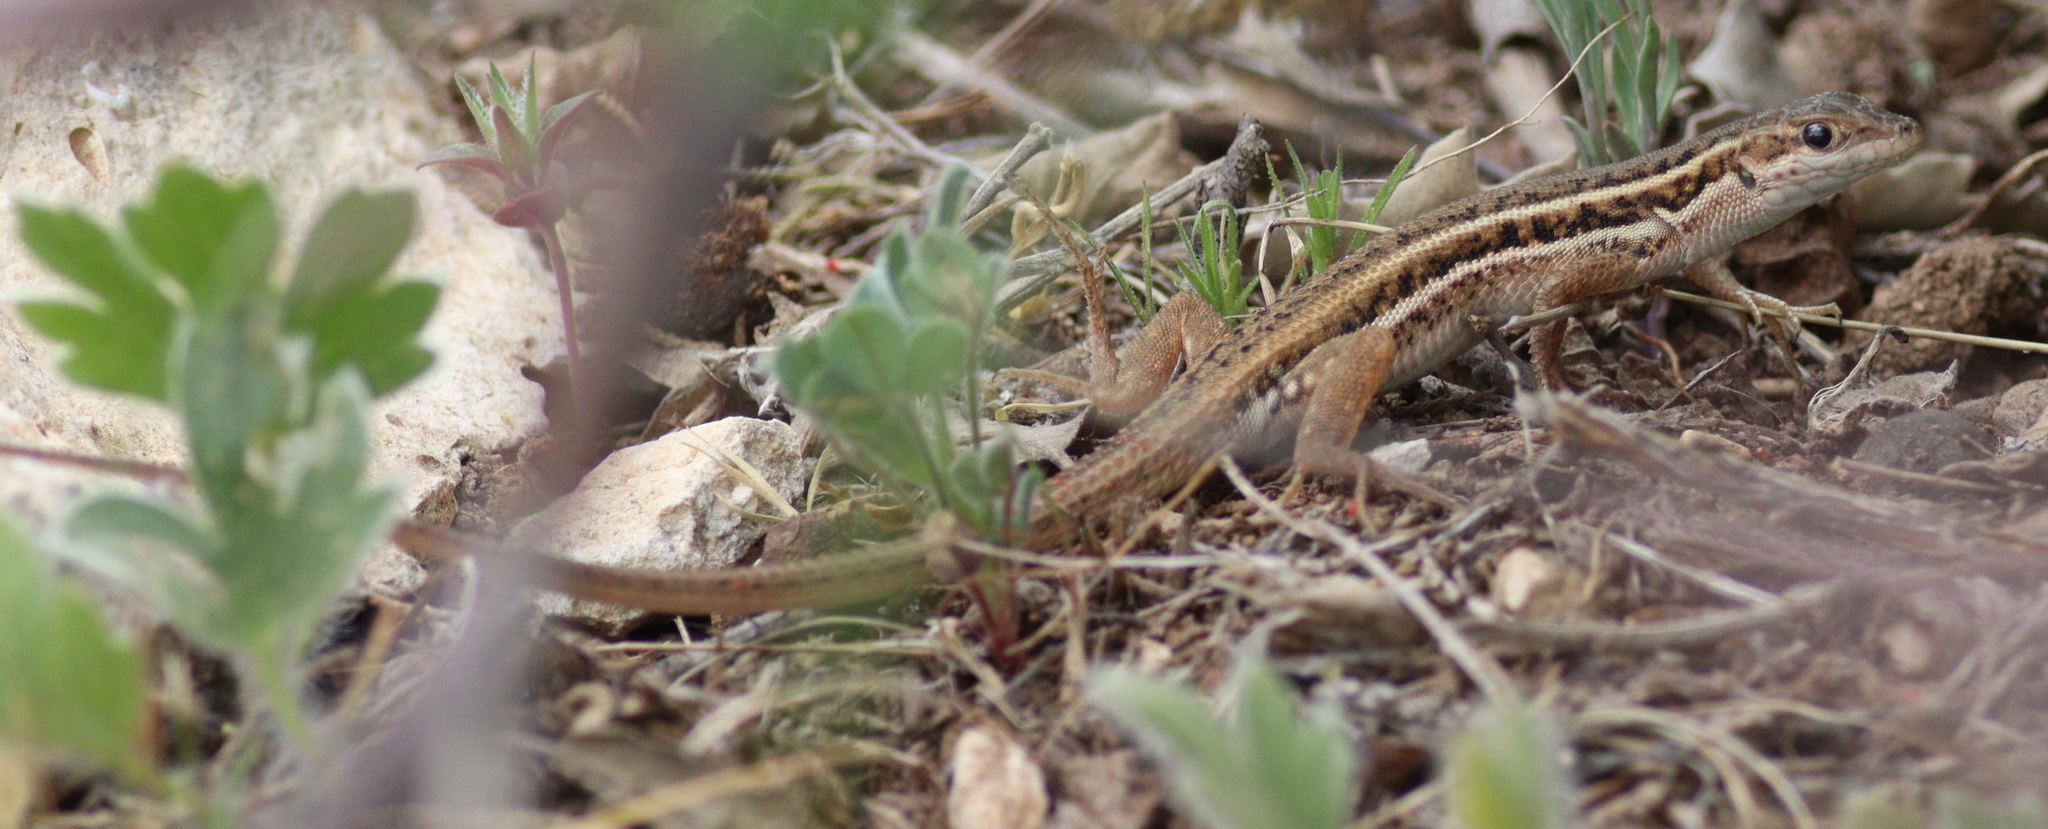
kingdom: Animalia
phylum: Chordata
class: Squamata
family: Lacertidae
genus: Ophisops
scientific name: Ophisops elegans
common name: Snake-eyed lizard
